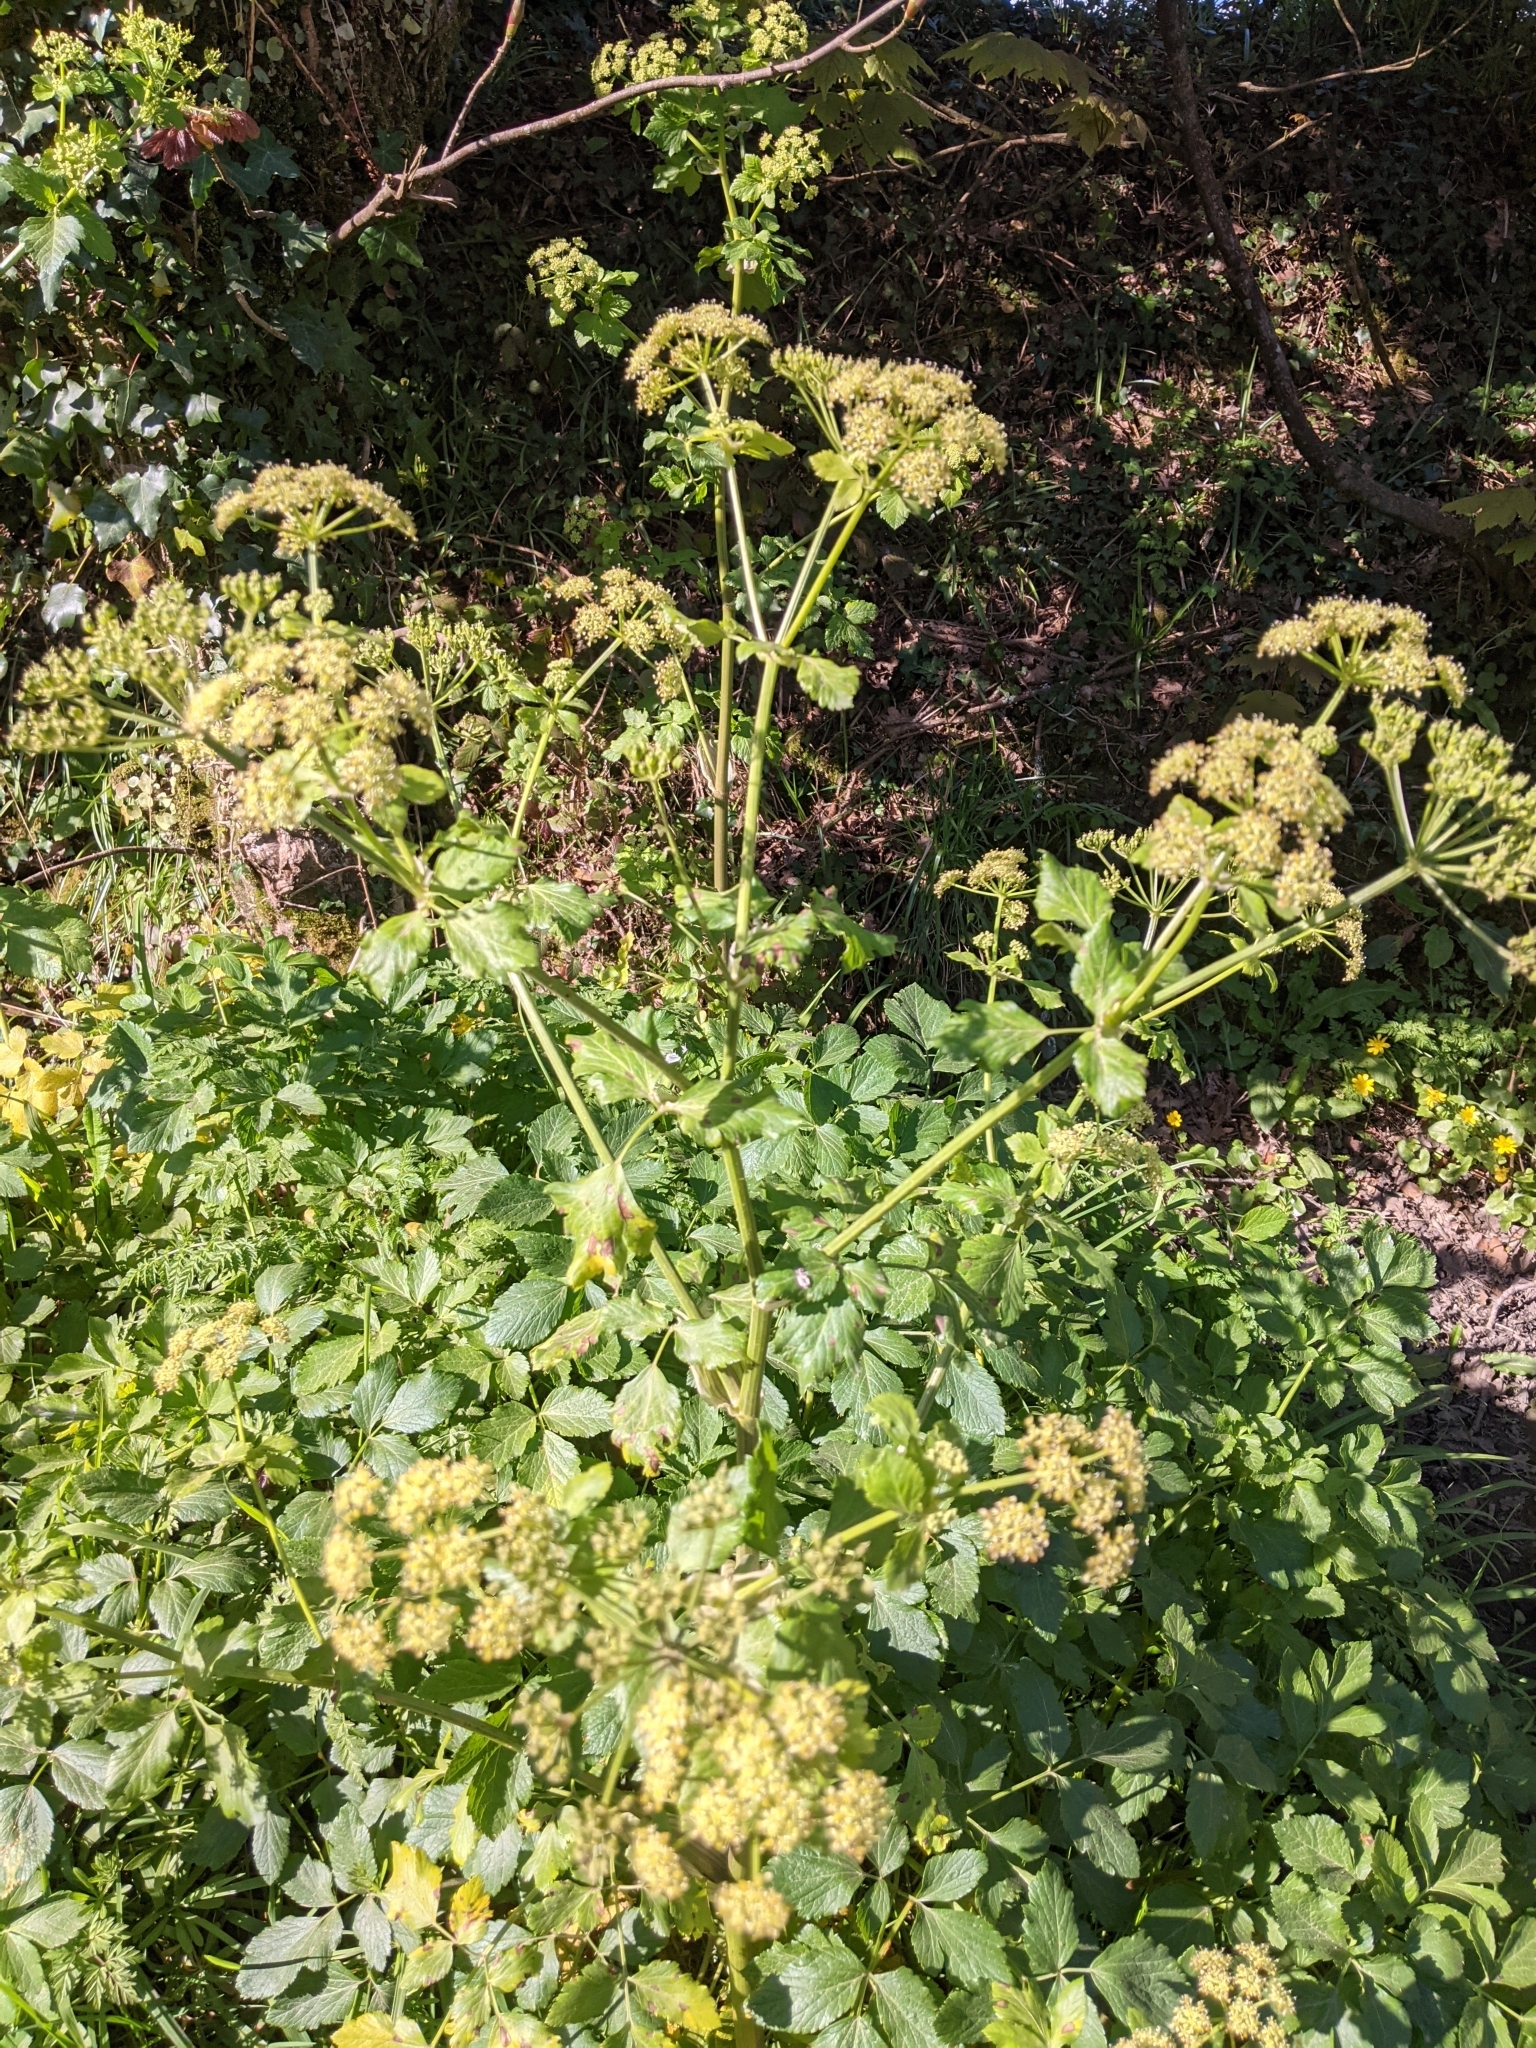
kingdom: Plantae
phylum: Tracheophyta
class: Magnoliopsida
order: Apiales
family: Apiaceae
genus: Smyrnium
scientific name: Smyrnium olusatrum
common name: Alexanders
